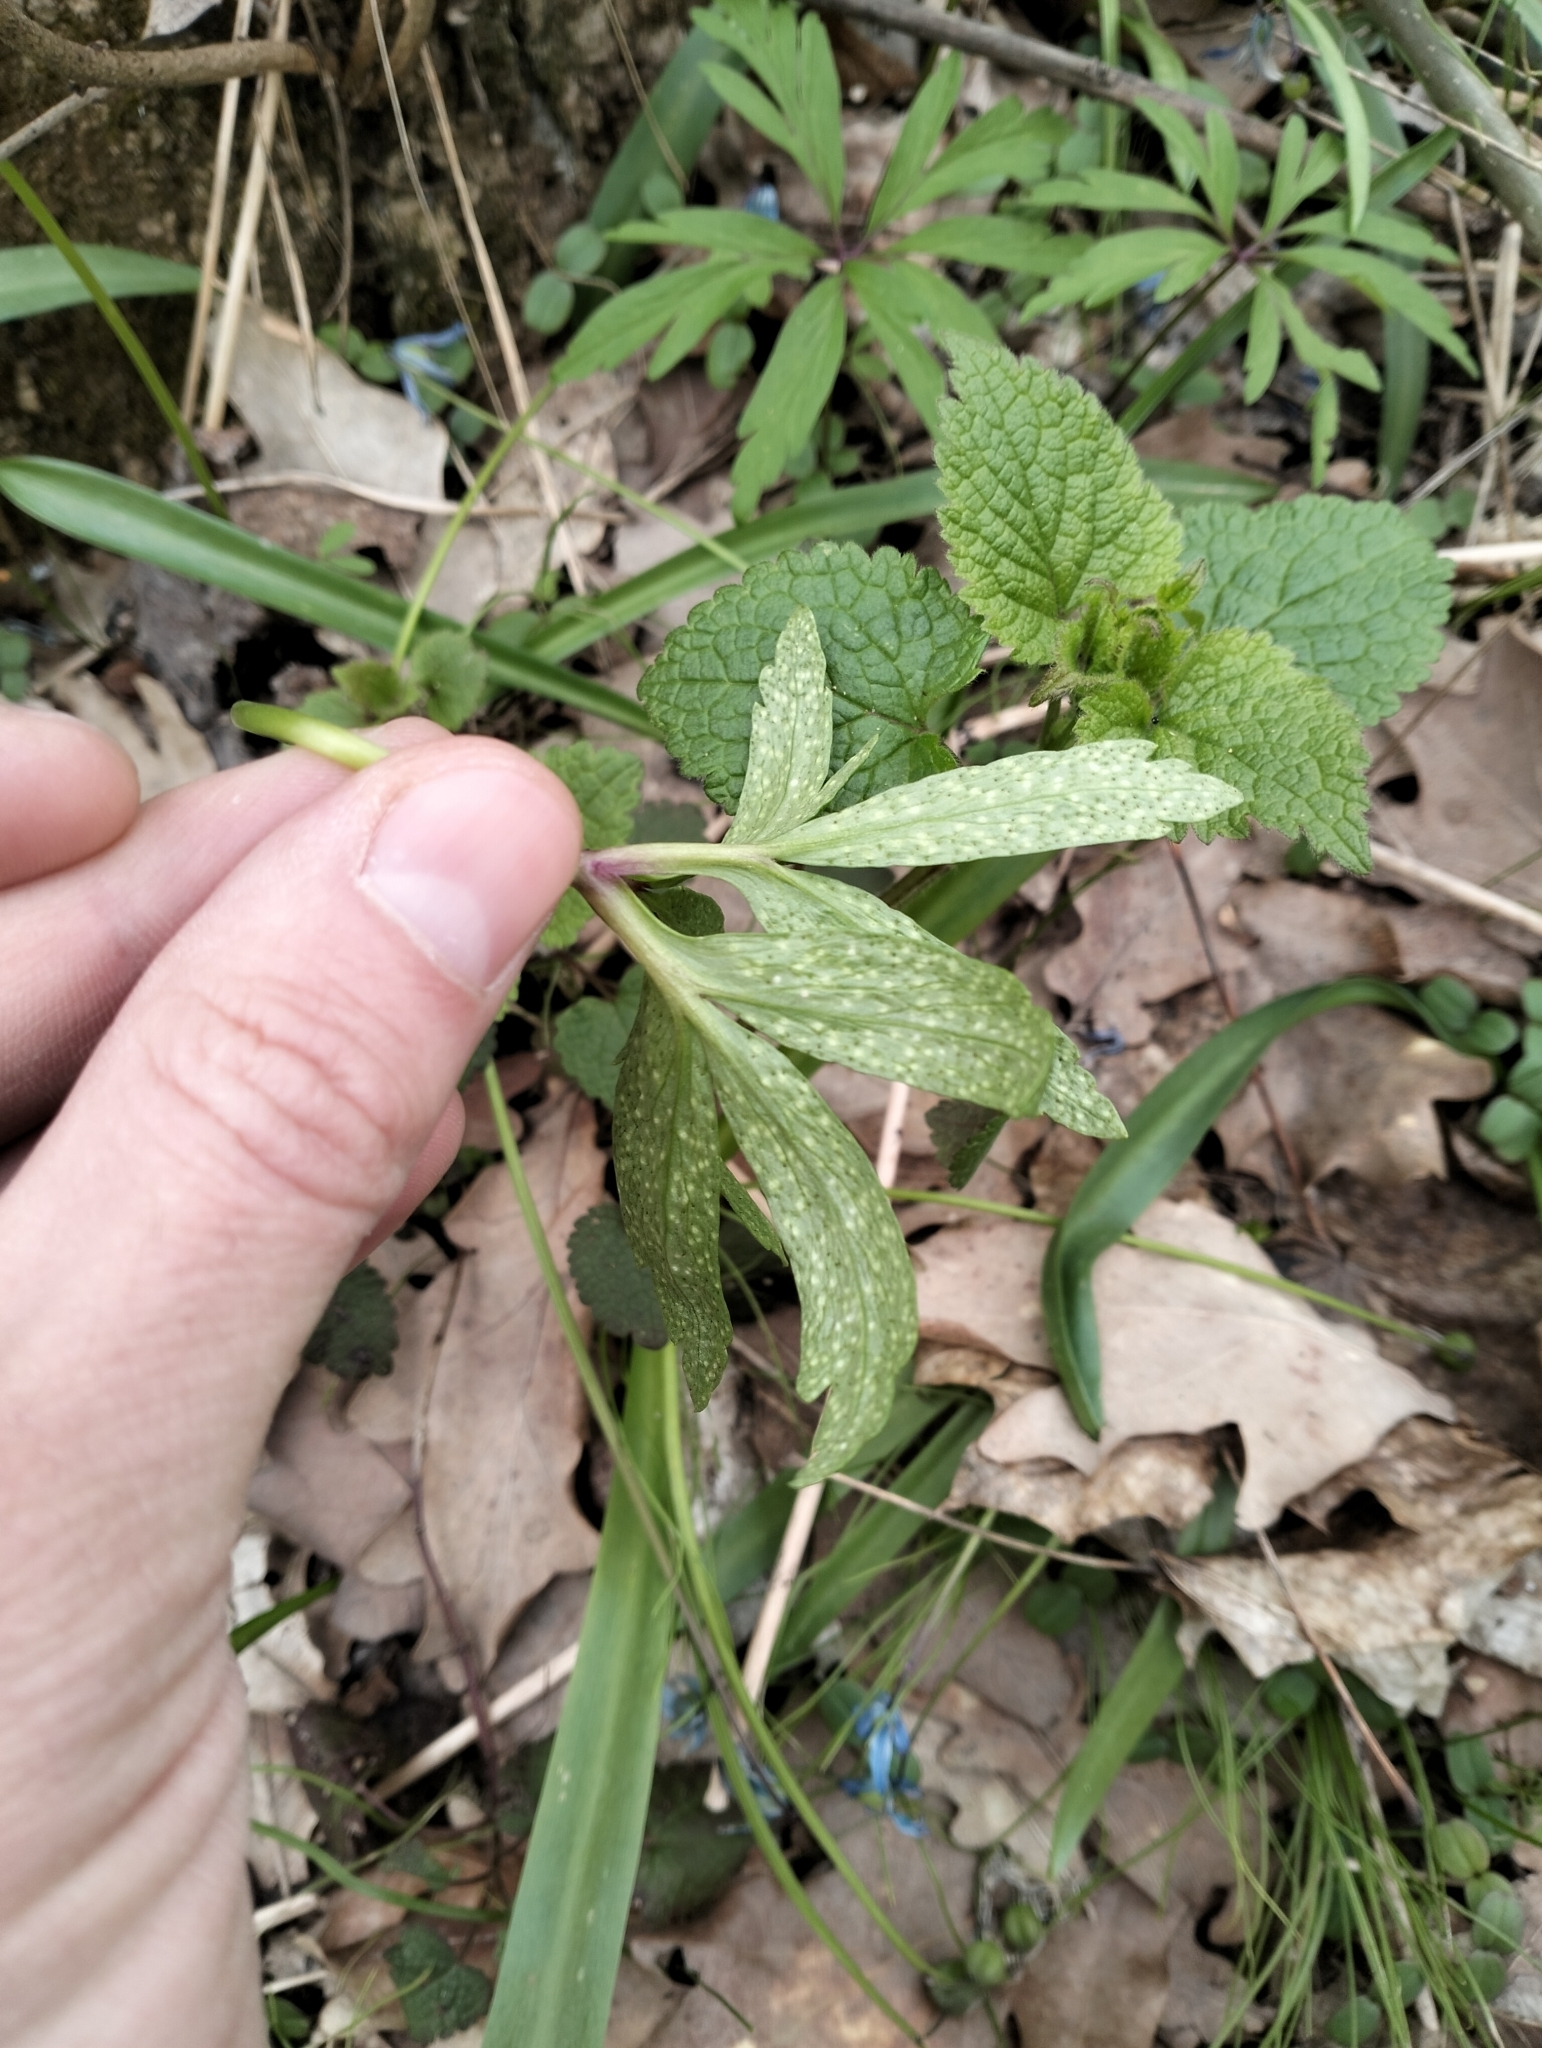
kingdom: Fungi
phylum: Basidiomycota
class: Pucciniomycetes
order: Pucciniales
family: Tranzscheliaceae
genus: Tranzschelia
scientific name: Tranzschelia pruni-spinosae
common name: Blackthorn rust
